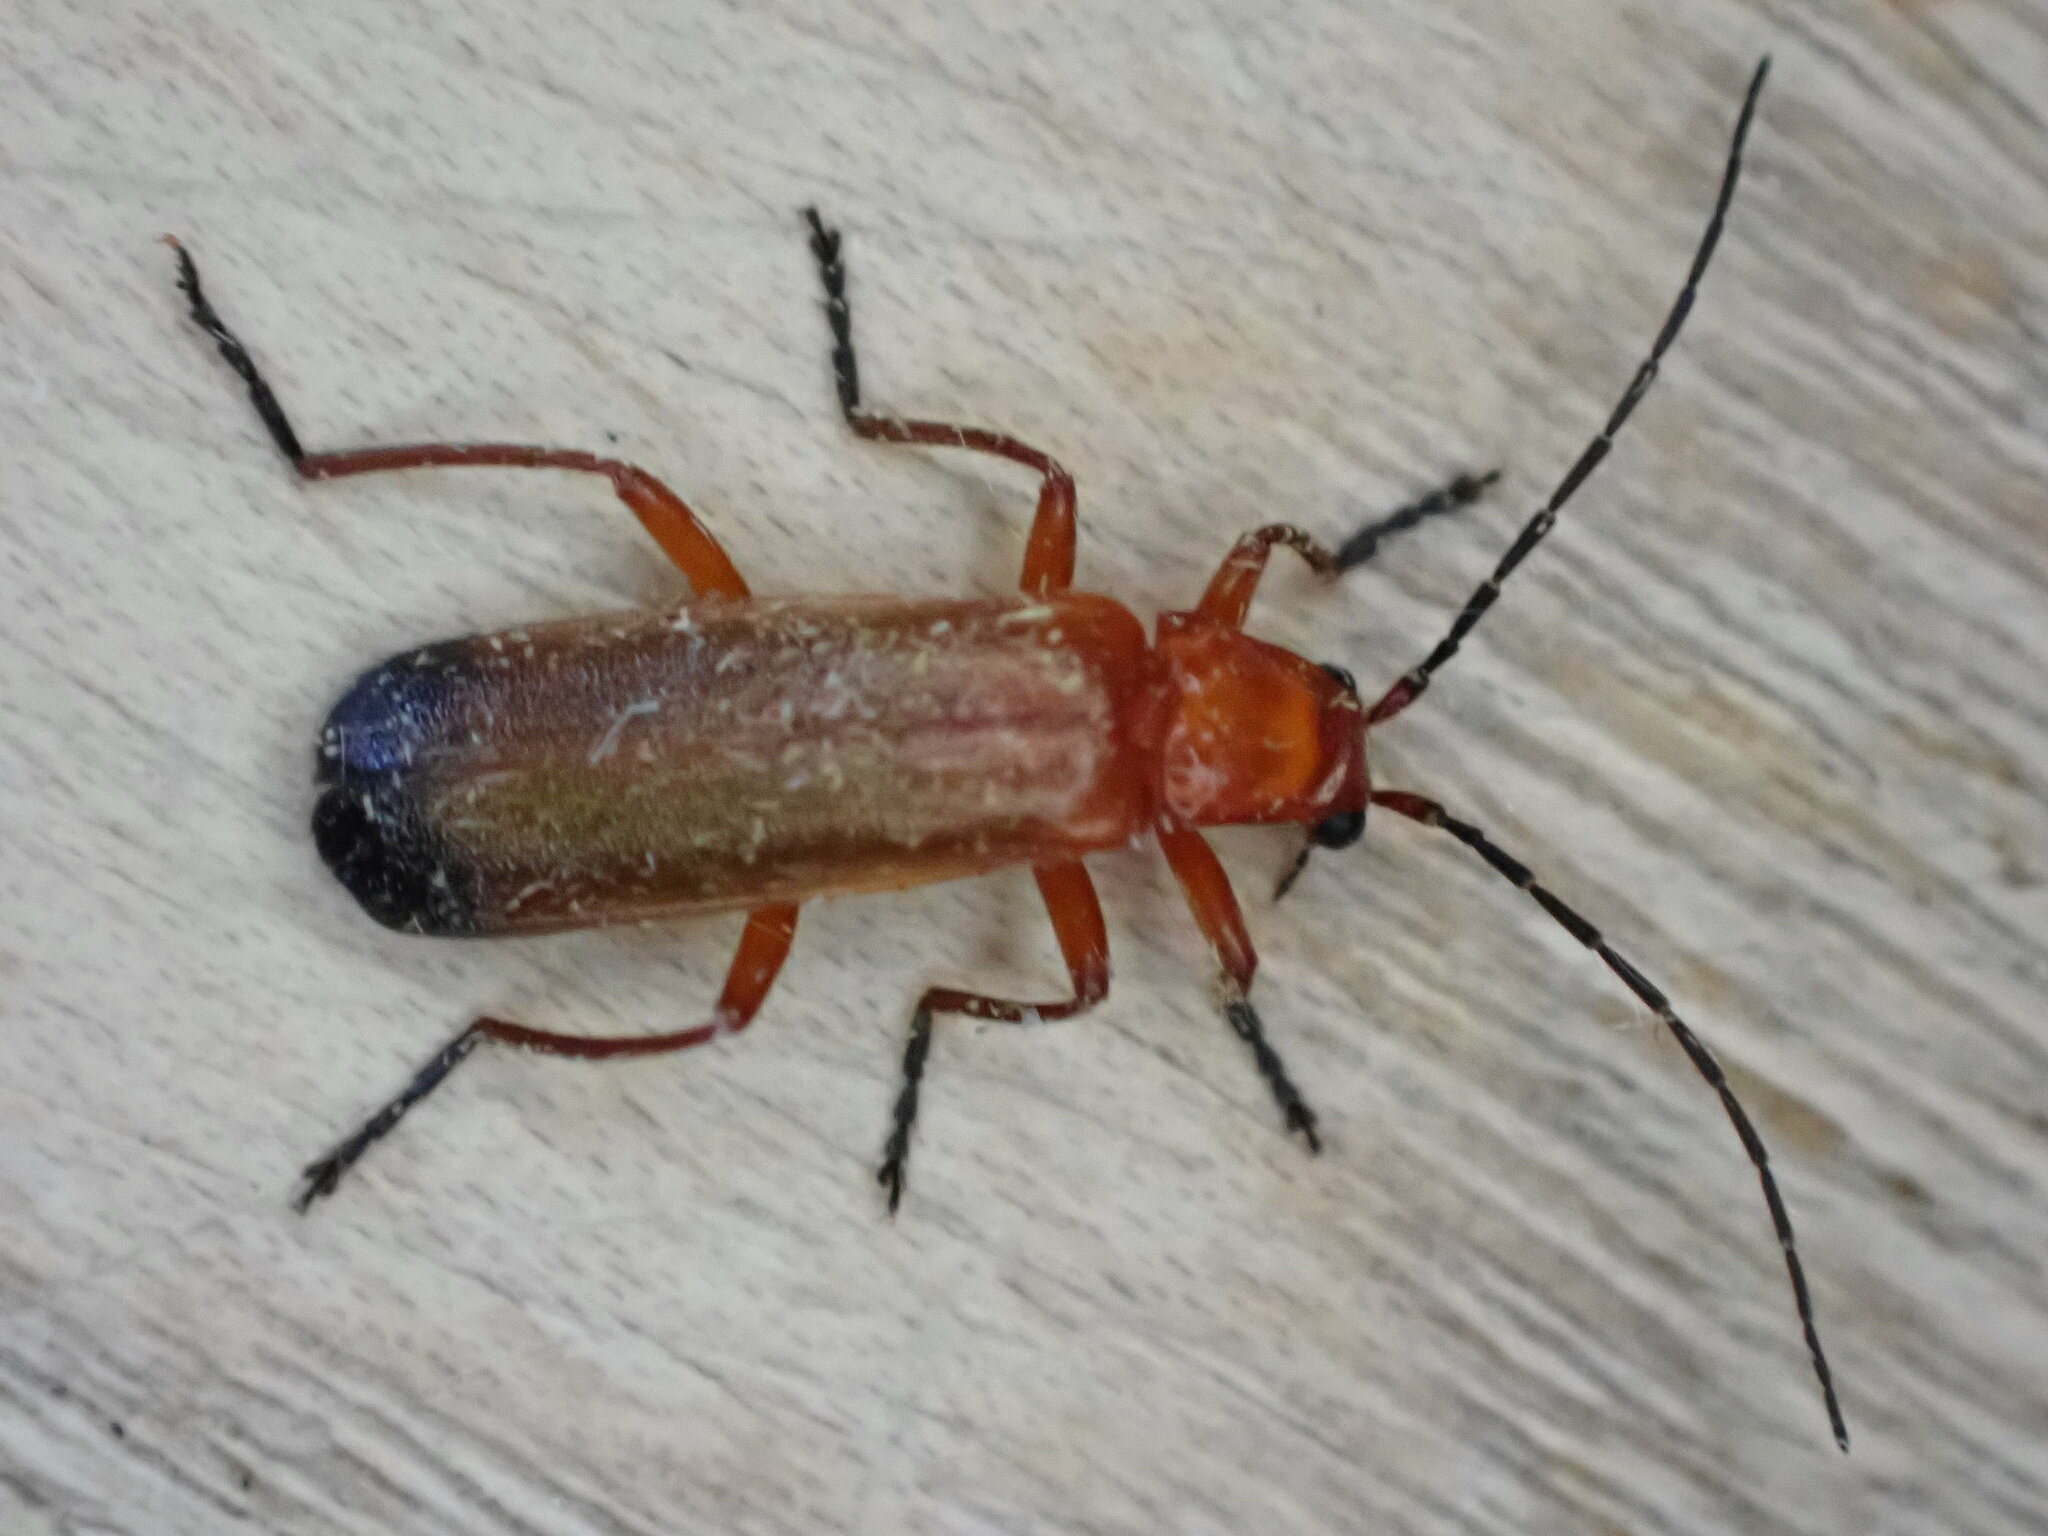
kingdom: Animalia
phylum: Arthropoda
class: Insecta
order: Coleoptera
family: Cantharidae
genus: Rhagonycha
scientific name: Rhagonycha fulva
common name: Common red soldier beetle
